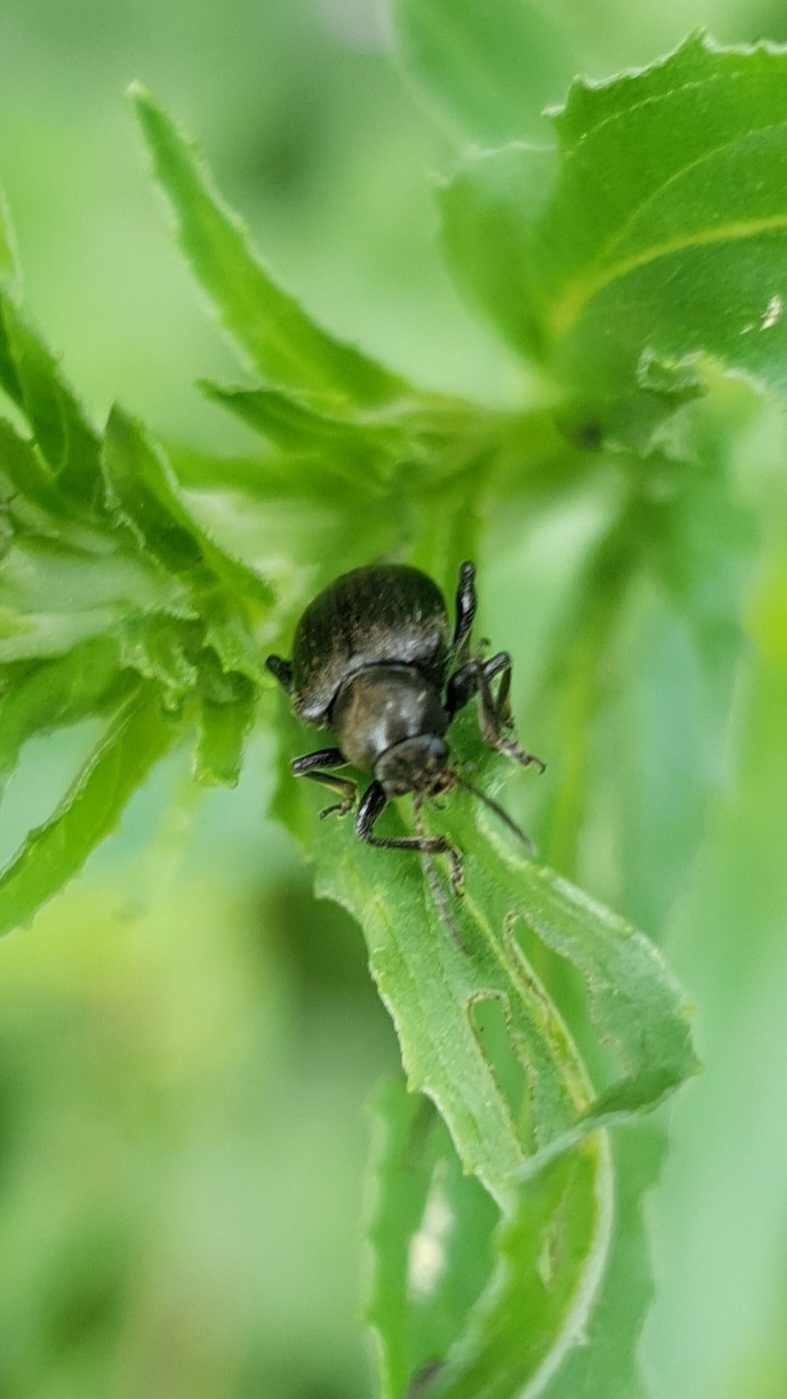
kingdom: Animalia
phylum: Arthropoda
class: Insecta
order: Coleoptera
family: Chrysomelidae
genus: Bromius
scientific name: Bromius obscurus
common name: Western grape rootworm
